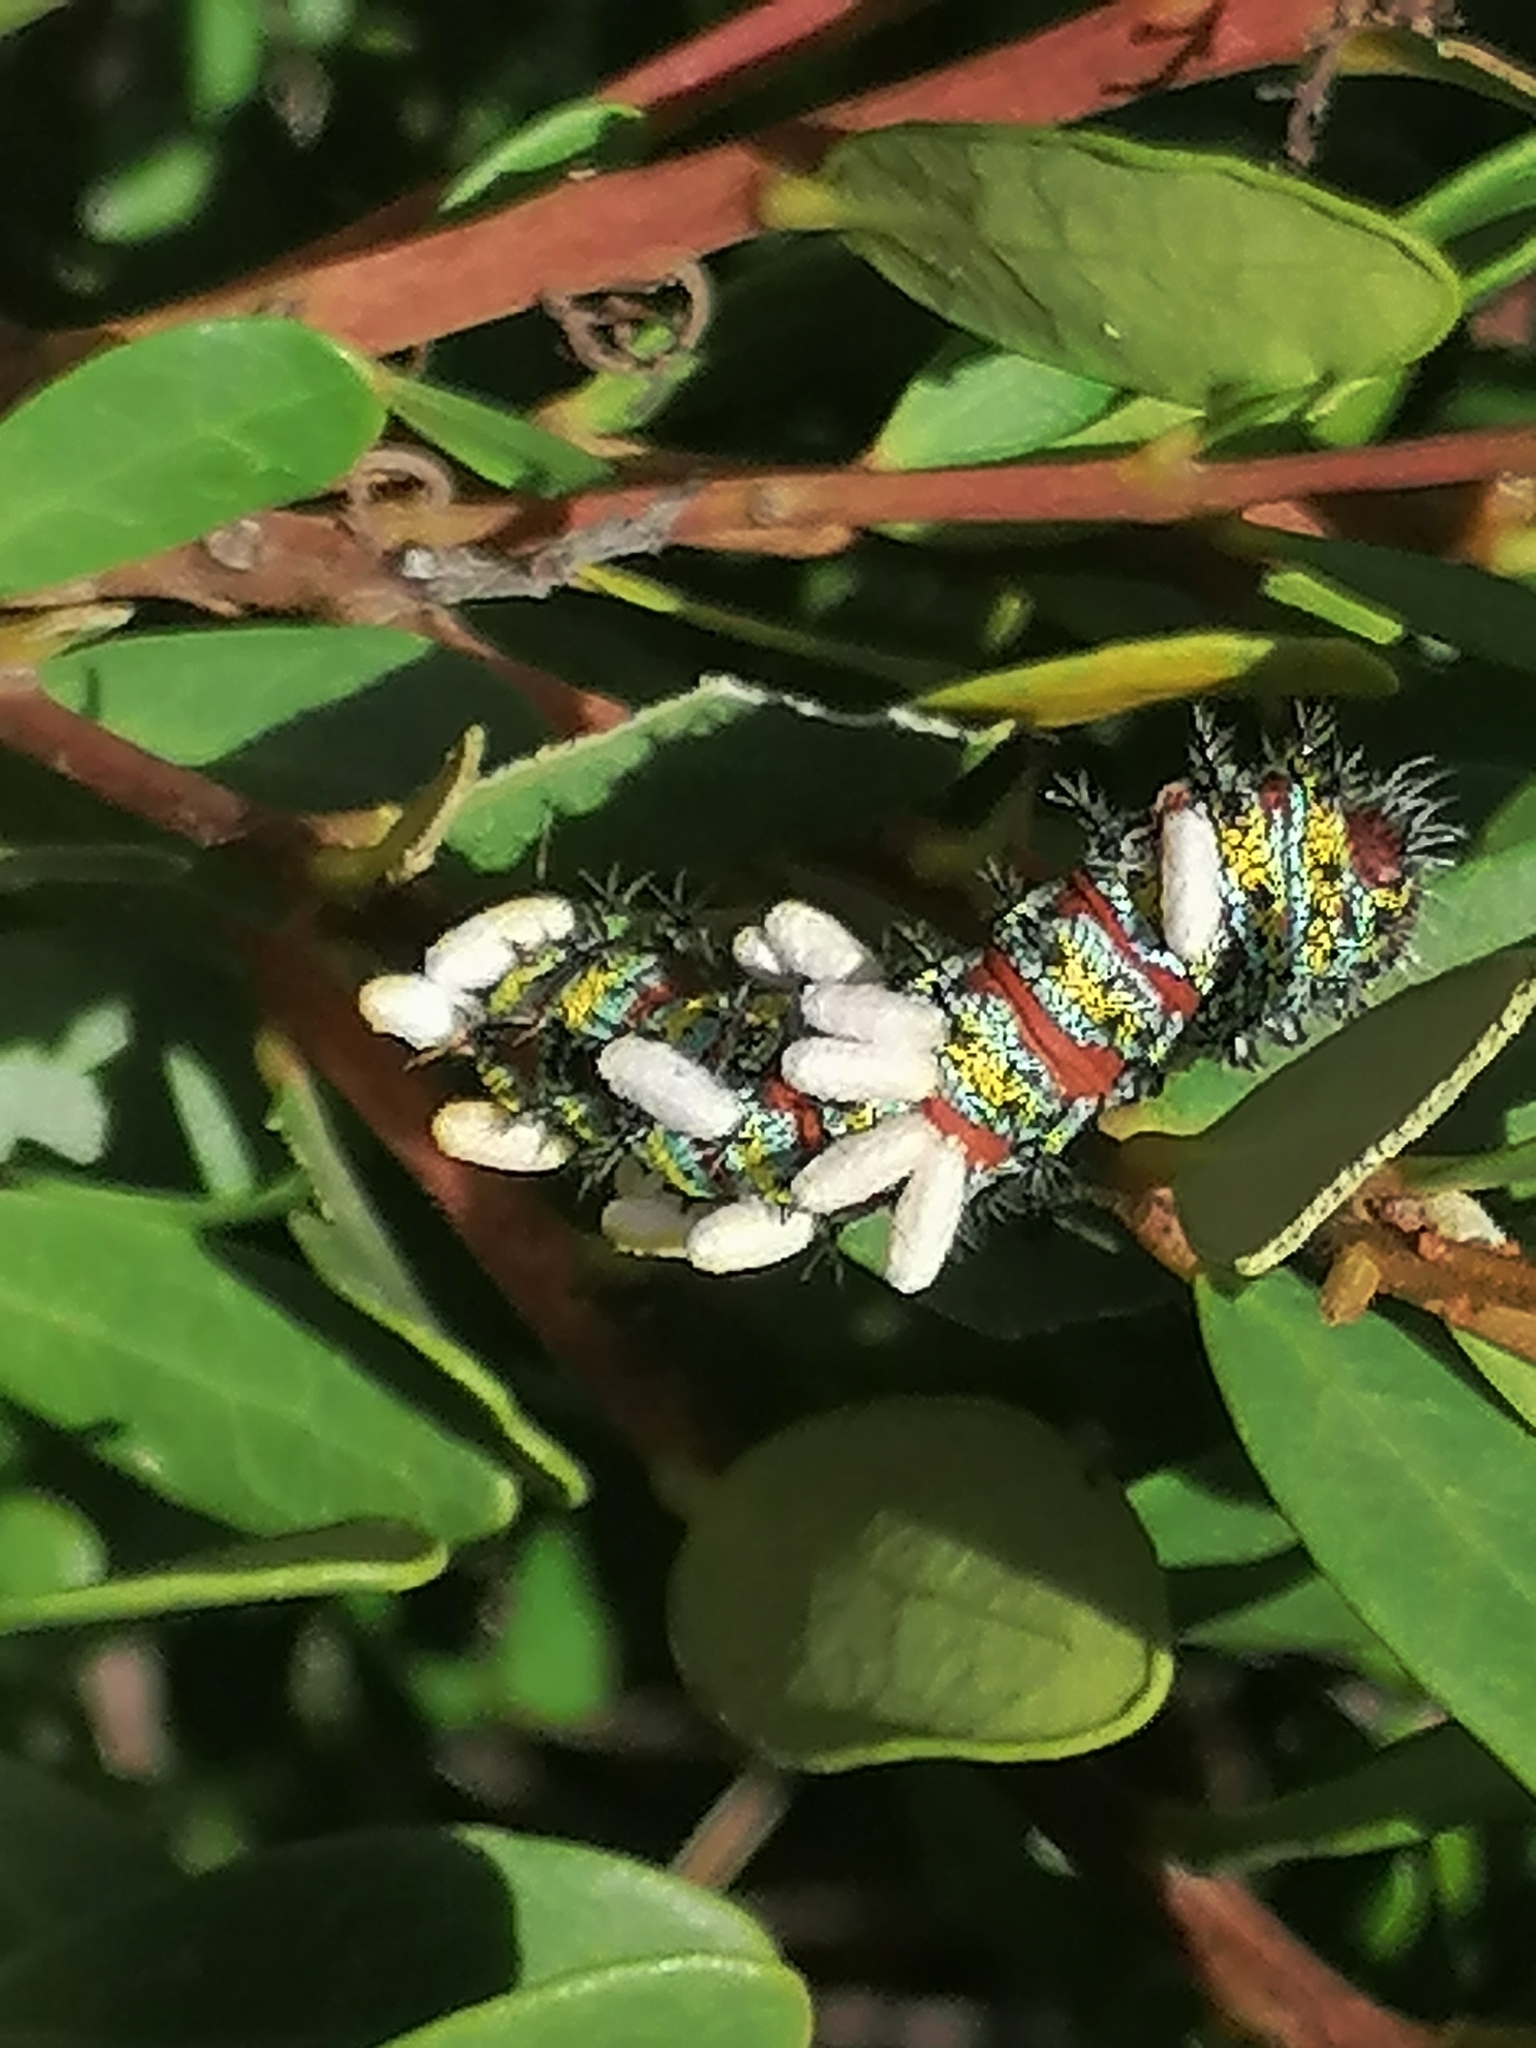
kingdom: Animalia
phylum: Arthropoda
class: Insecta
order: Lepidoptera
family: Saturniidae
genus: Nudaurelia
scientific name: Nudaurelia cytherea
